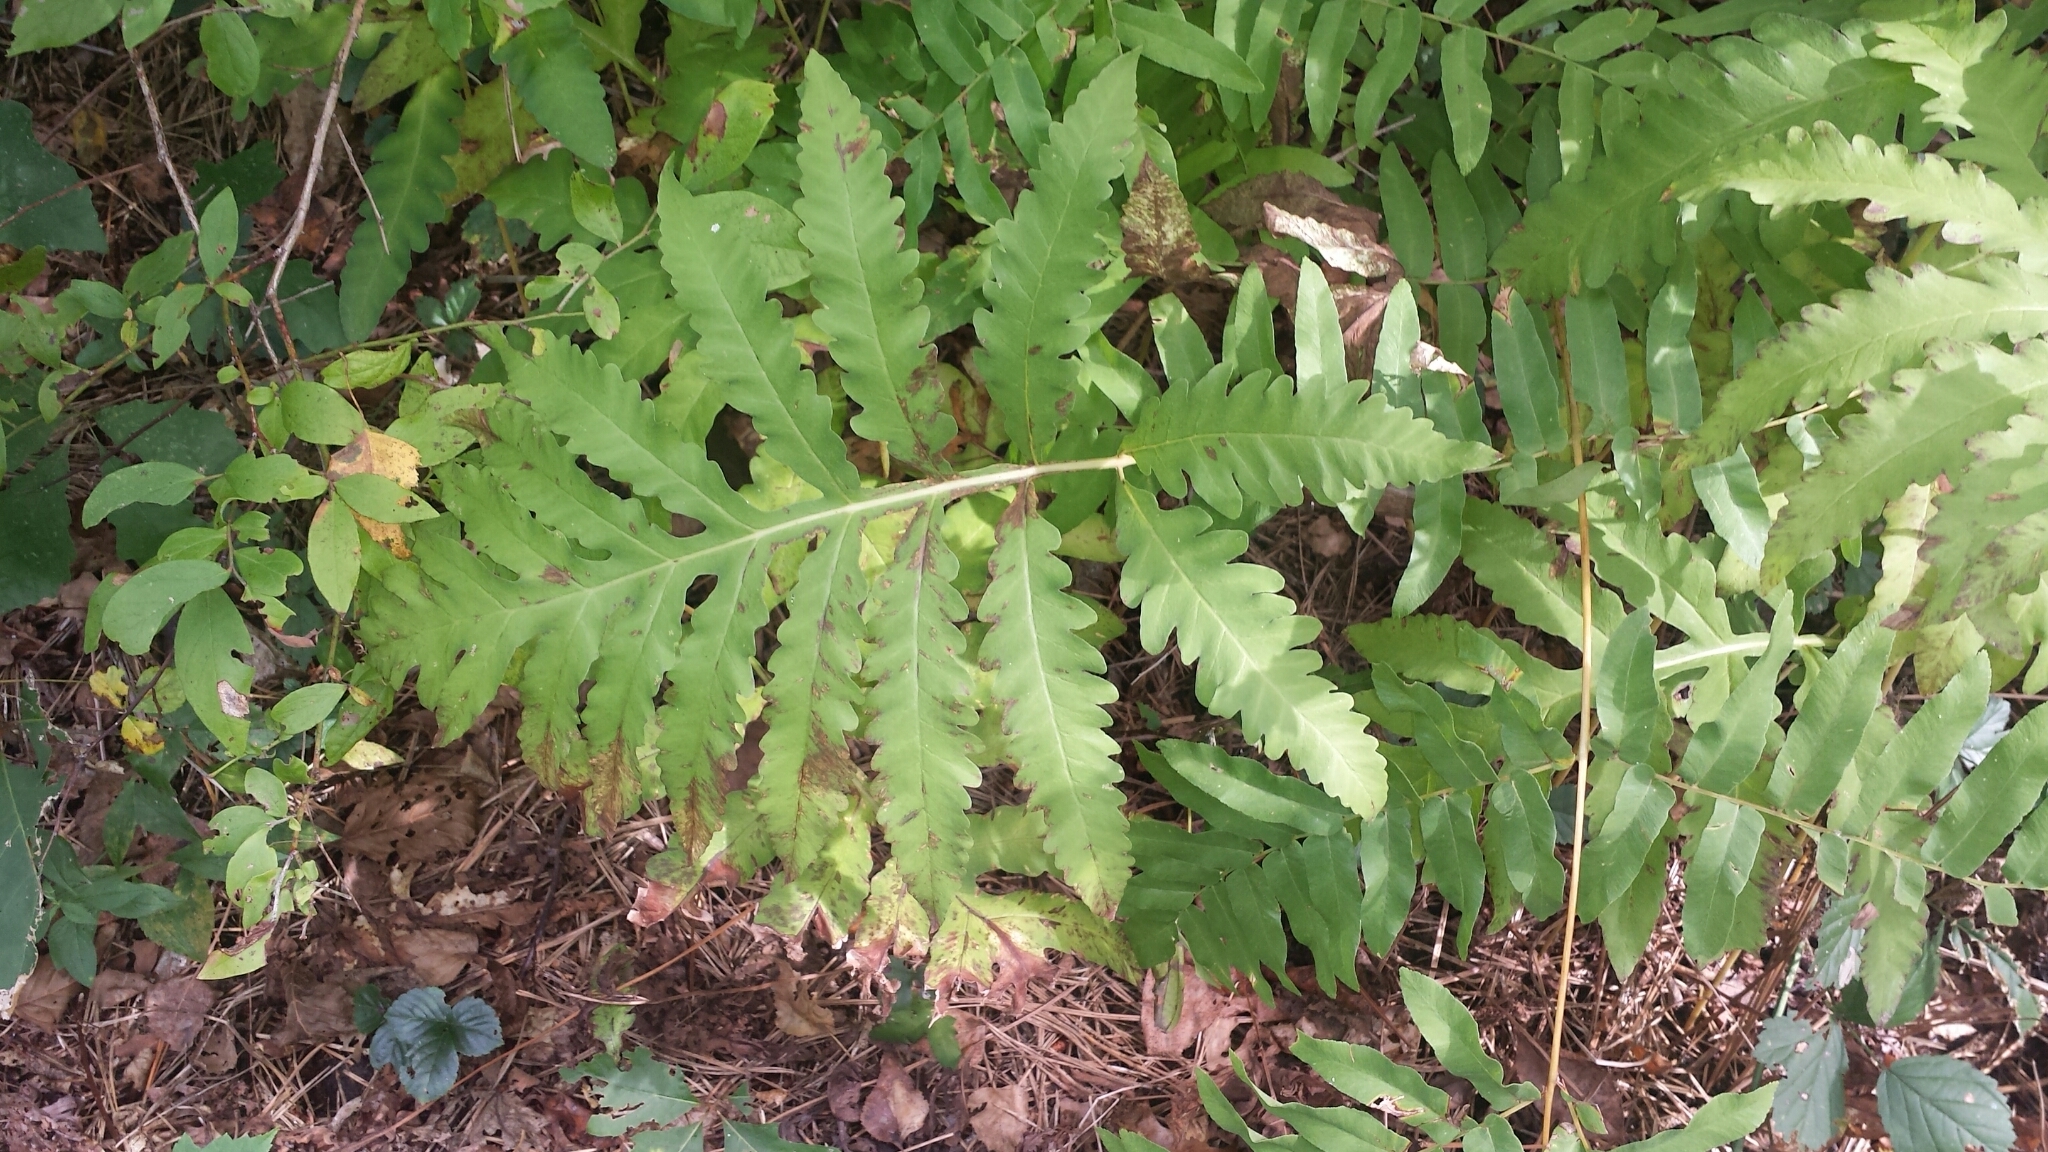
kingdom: Plantae
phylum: Tracheophyta
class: Polypodiopsida
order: Polypodiales
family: Onocleaceae
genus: Onoclea
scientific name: Onoclea sensibilis
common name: Sensitive fern
